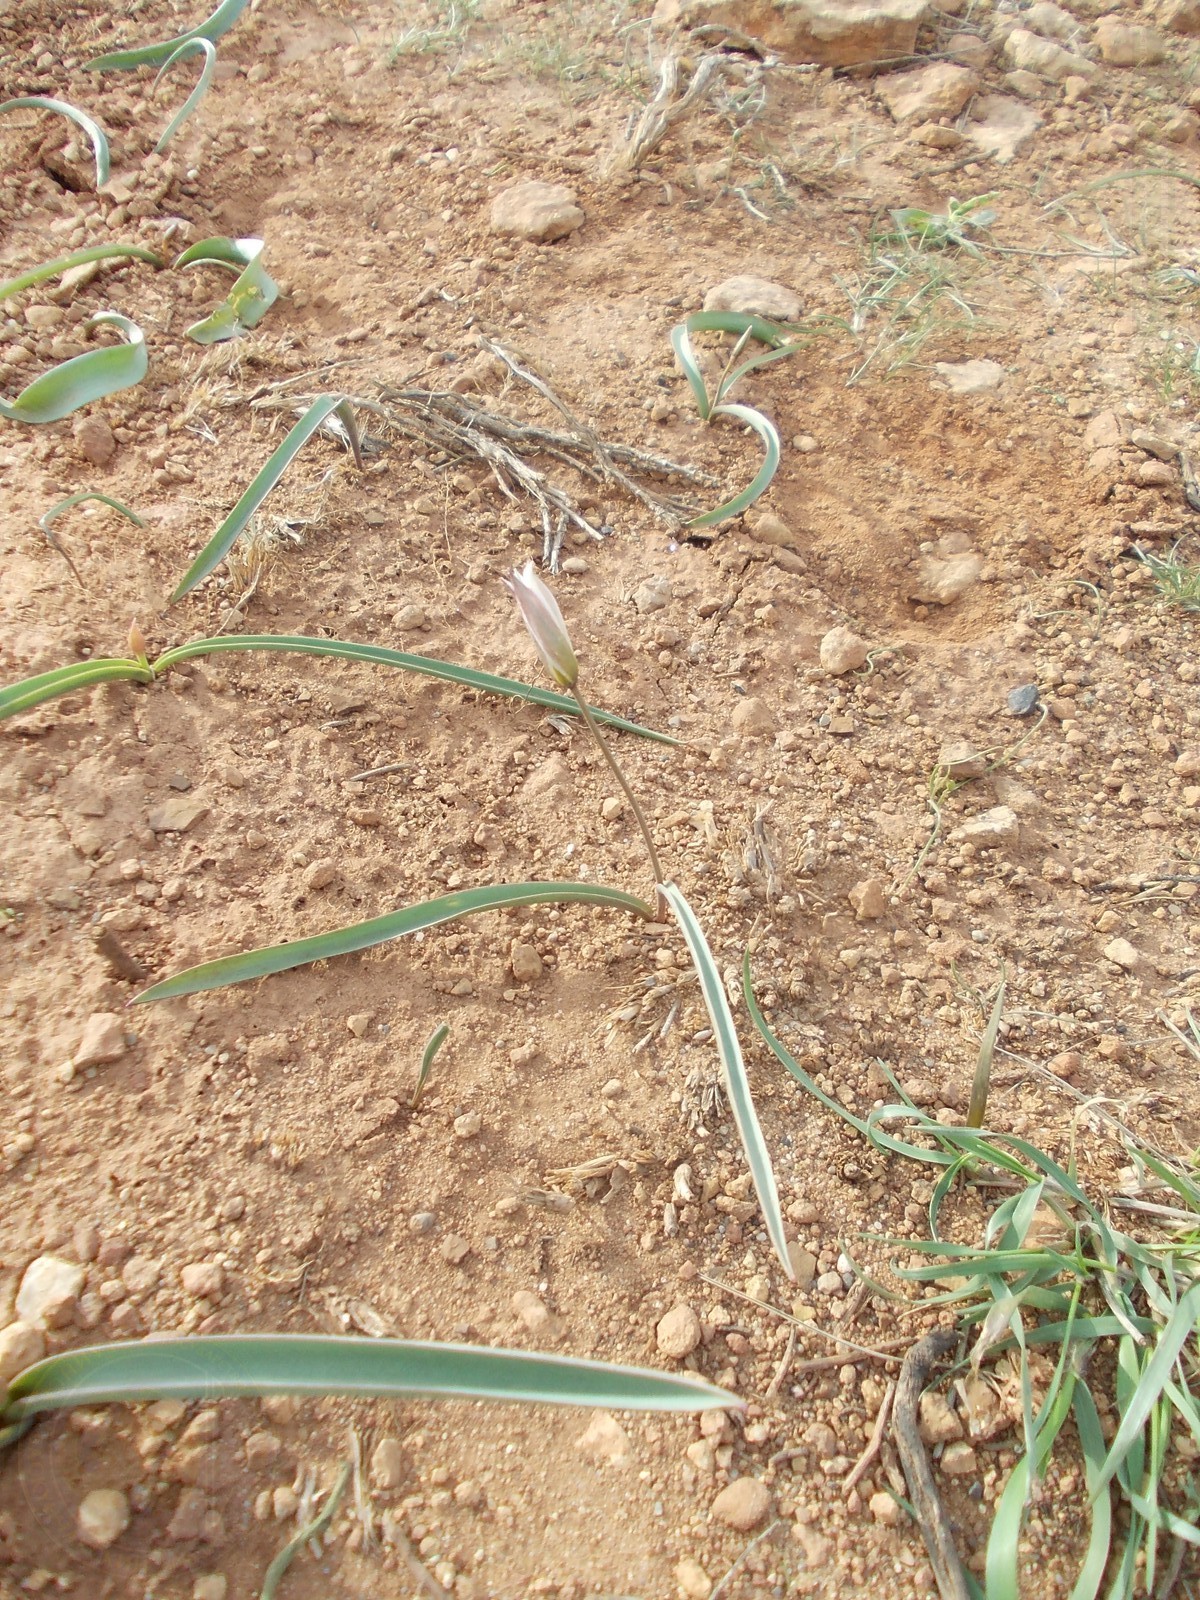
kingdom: Plantae
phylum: Tracheophyta
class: Liliopsida
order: Liliales
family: Liliaceae
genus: Tulipa
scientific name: Tulipa biflora
